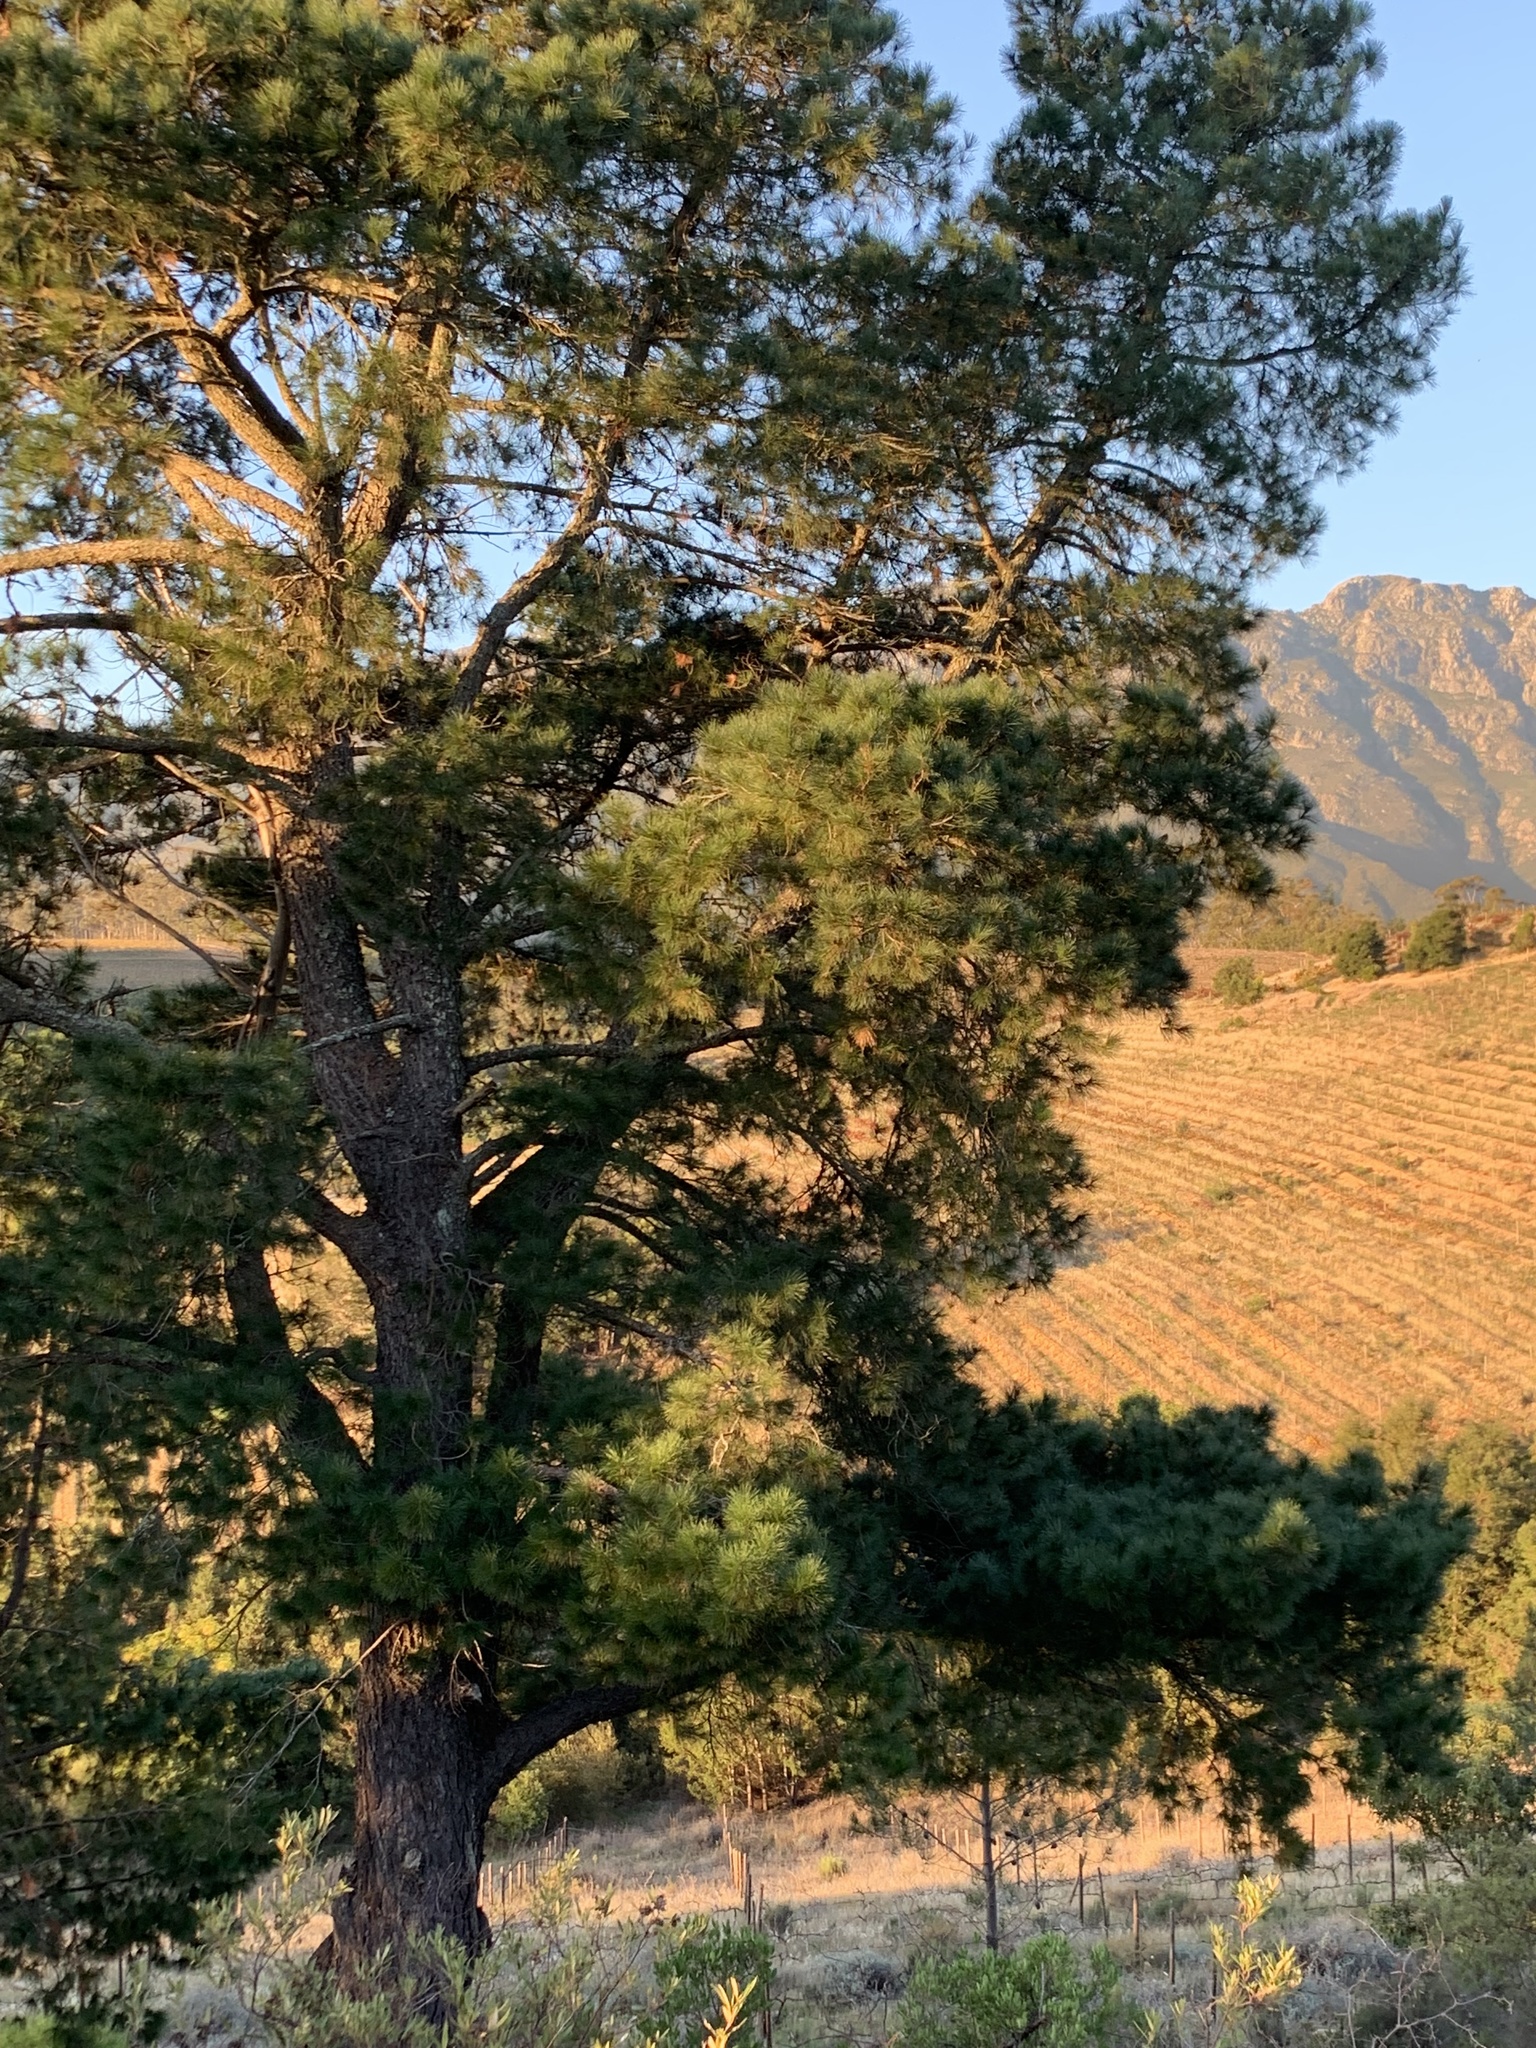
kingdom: Plantae
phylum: Tracheophyta
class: Pinopsida
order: Pinales
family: Pinaceae
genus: Pinus
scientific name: Pinus radiata
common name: Monterey pine
